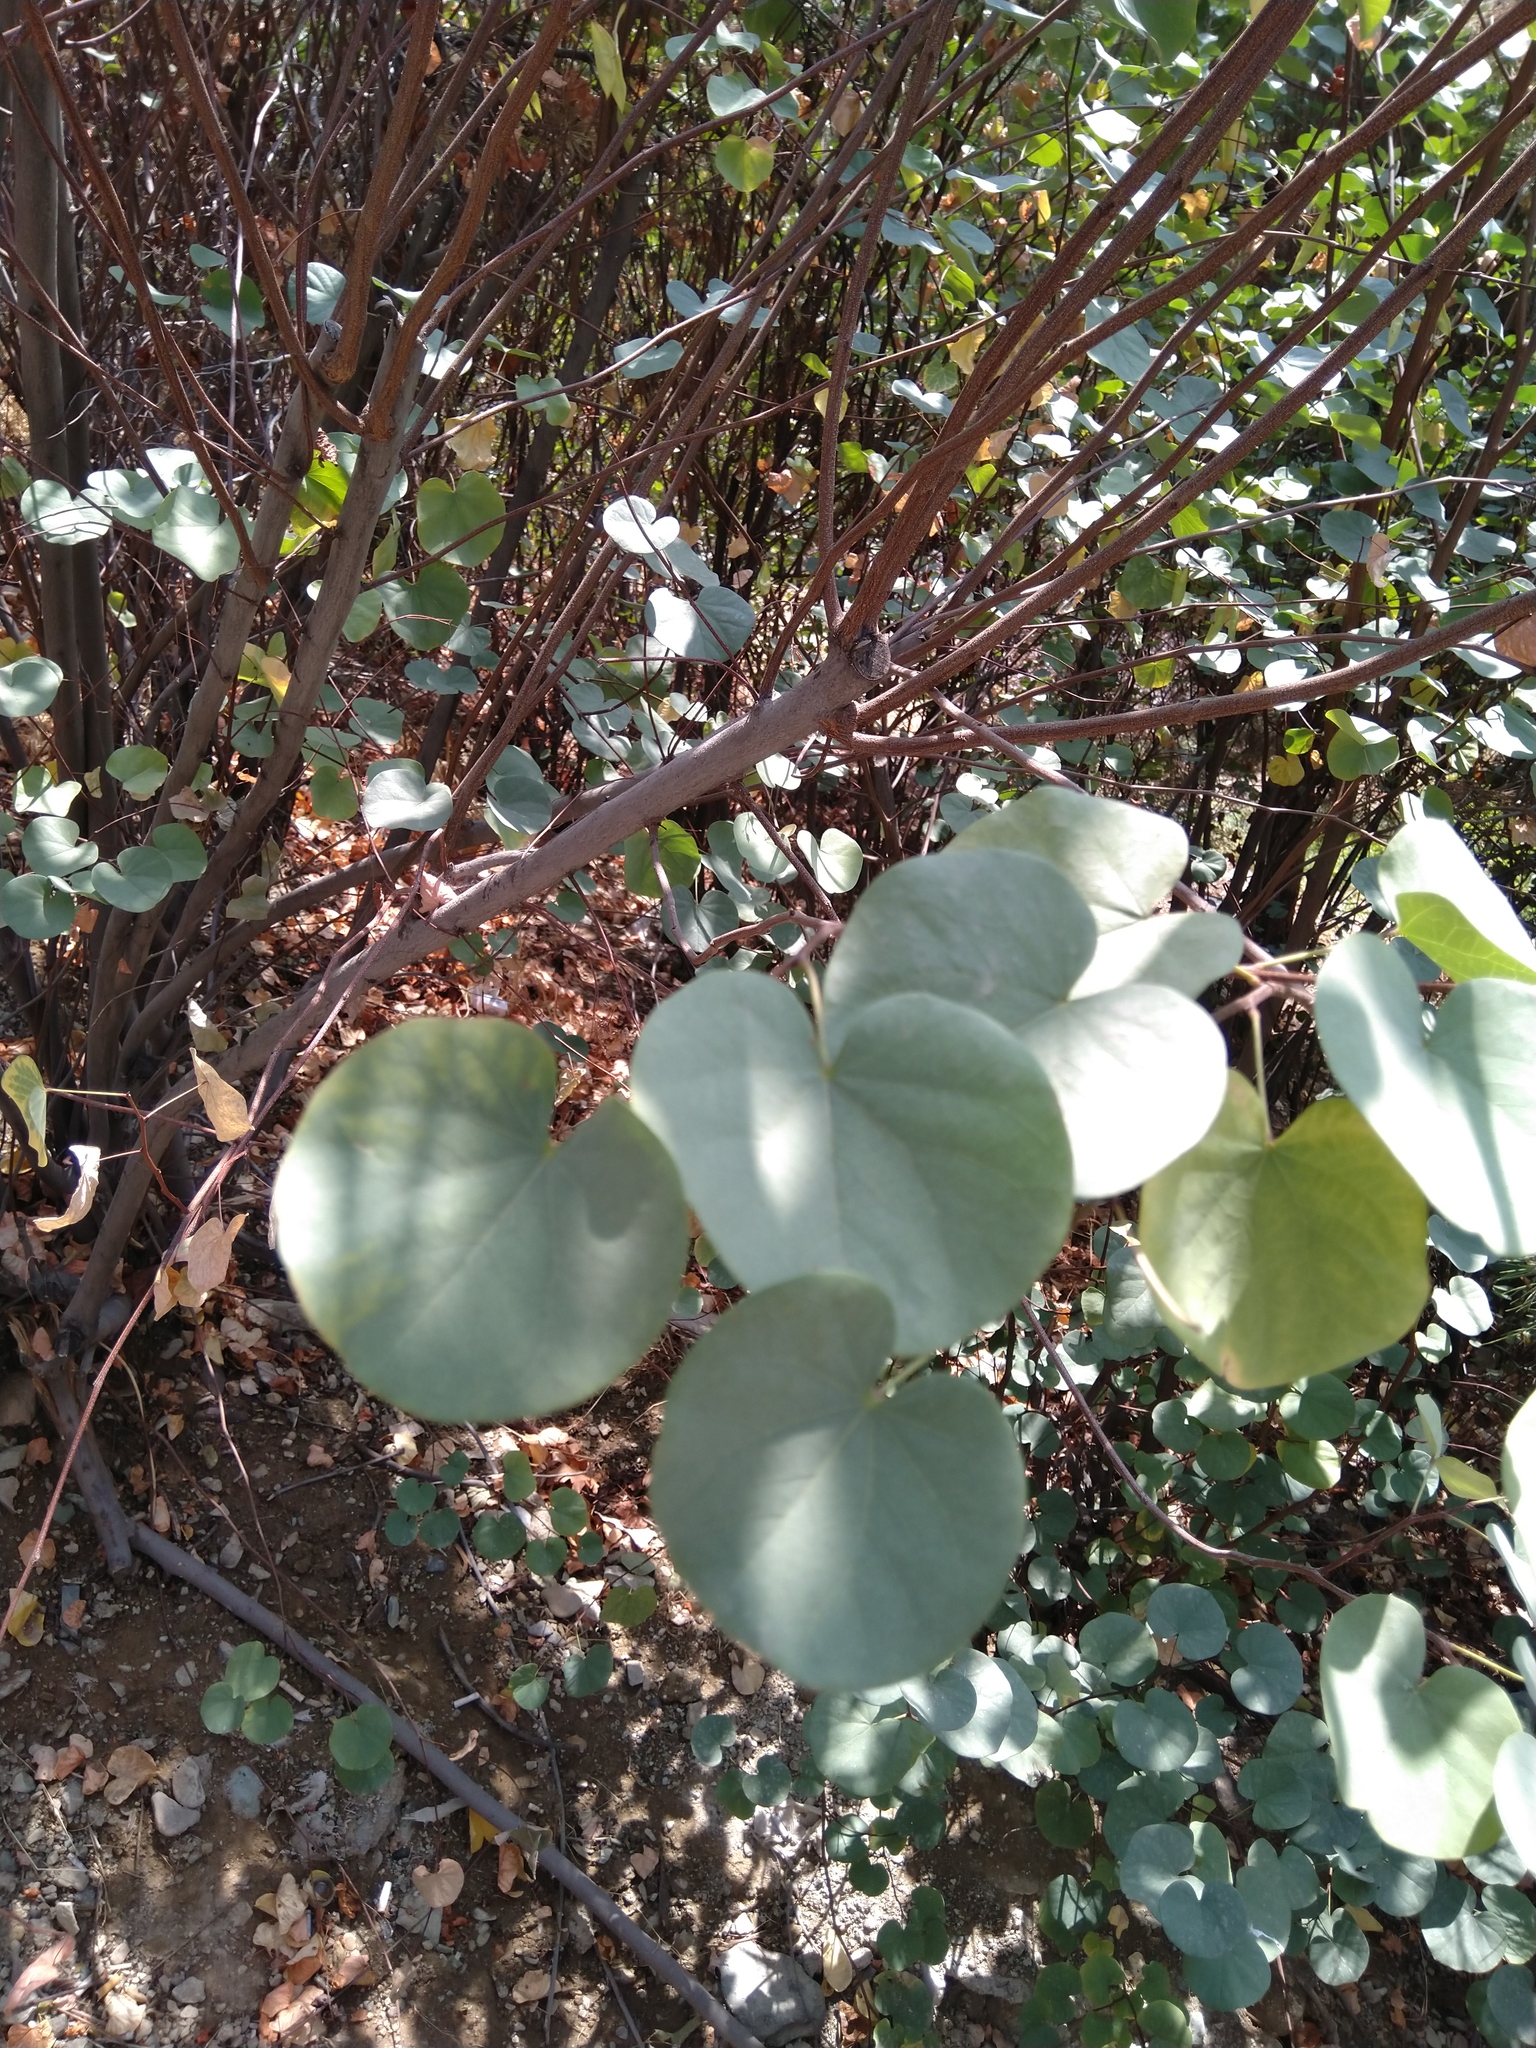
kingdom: Plantae
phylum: Tracheophyta
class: Magnoliopsida
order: Fabales
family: Fabaceae
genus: Cercis
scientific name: Cercis siliquastrum
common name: Judas tree
